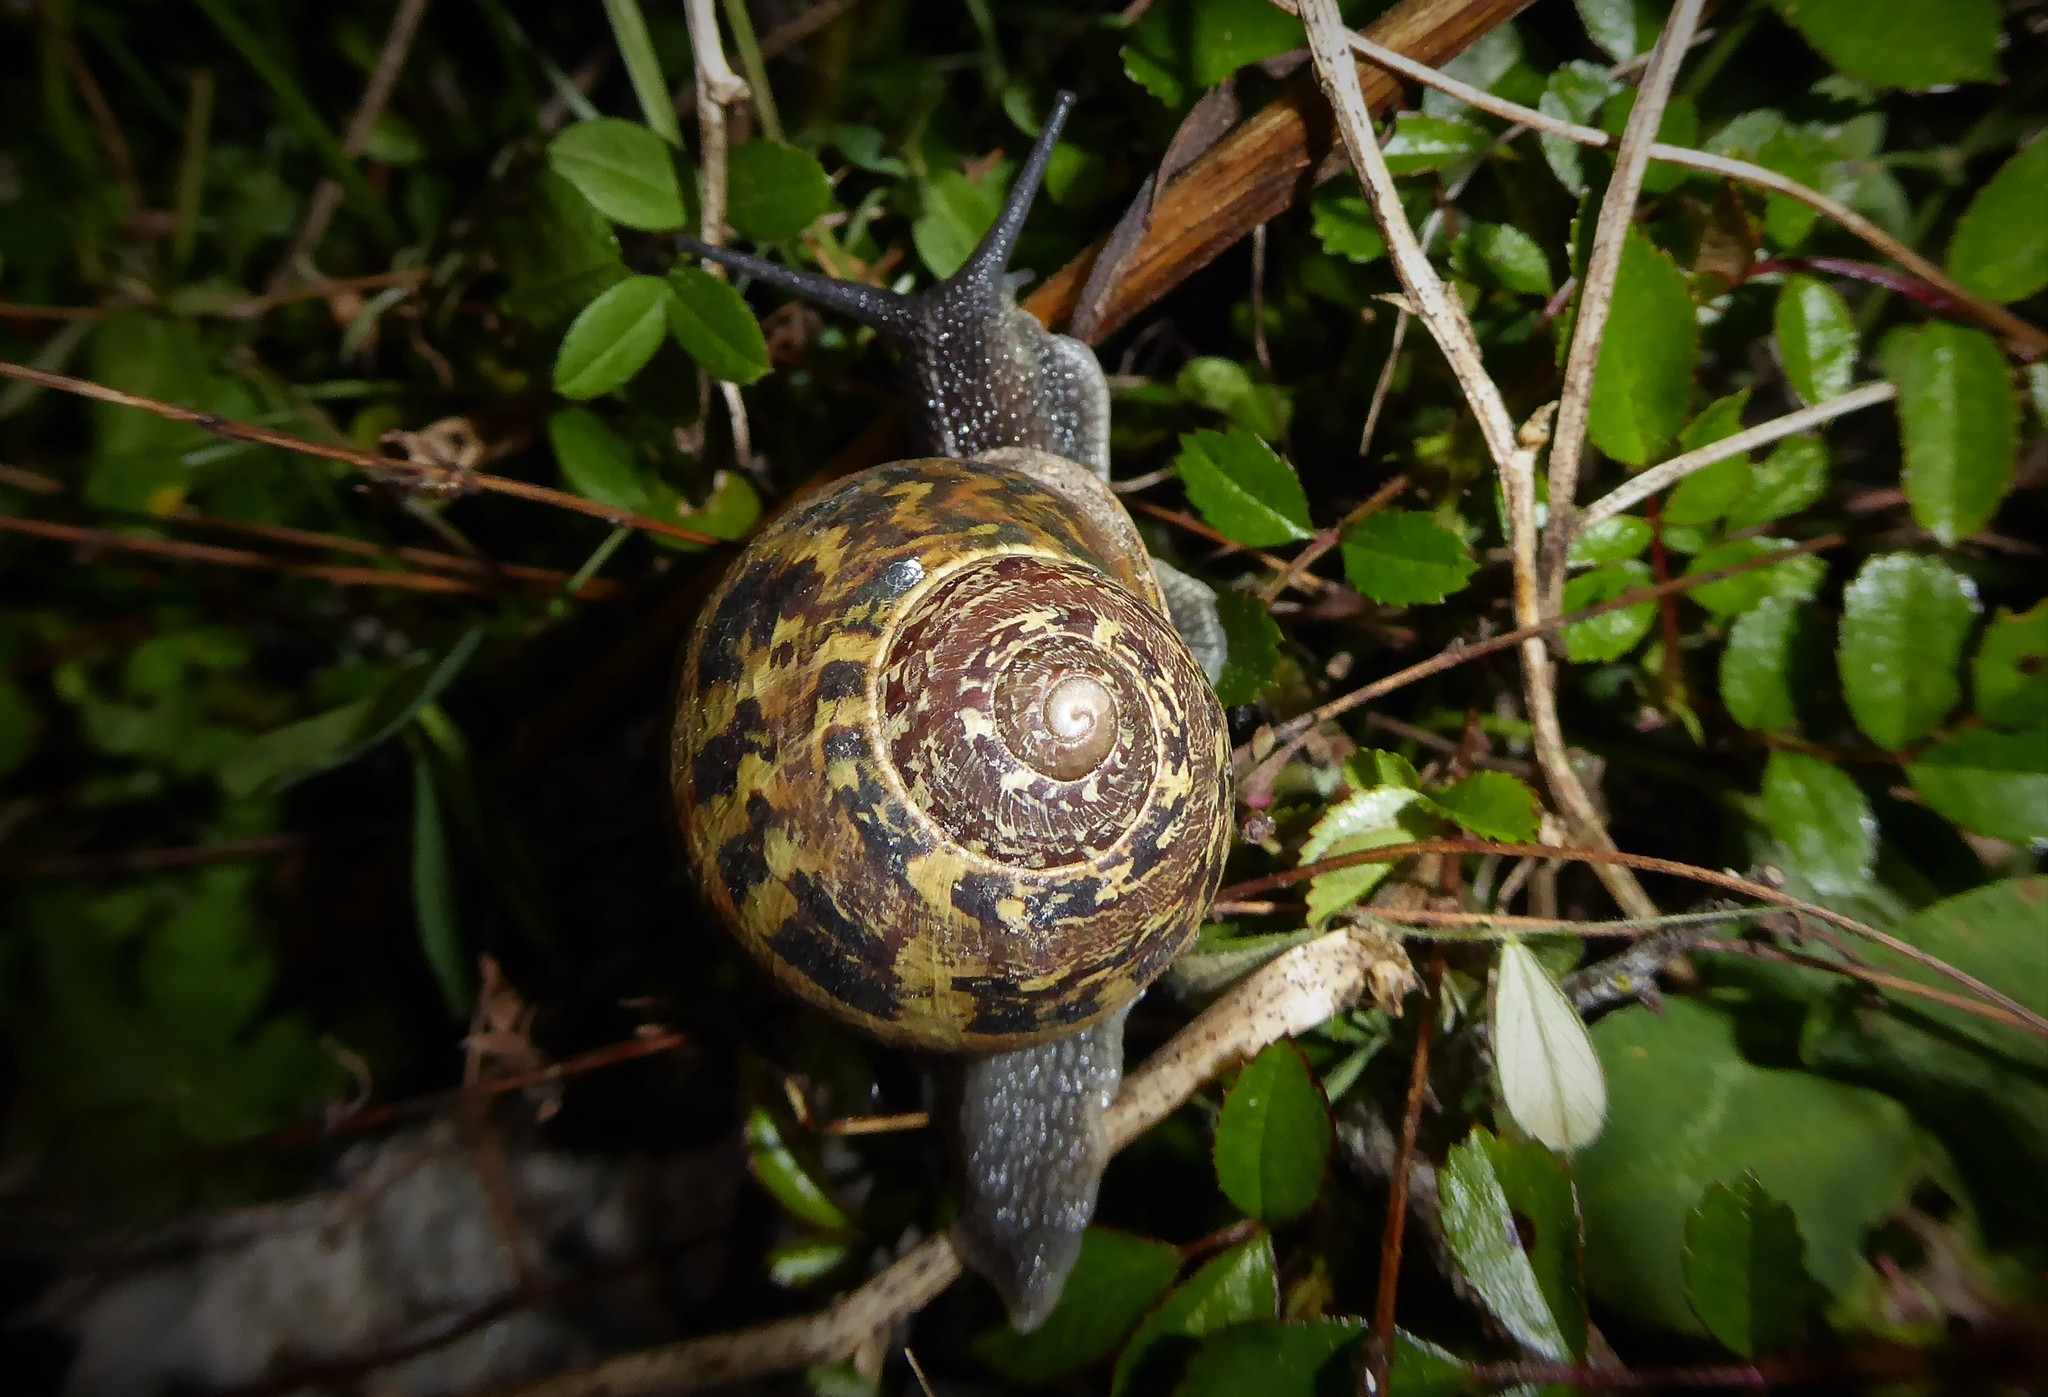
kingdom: Animalia
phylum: Mollusca
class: Gastropoda
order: Stylommatophora
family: Helicidae
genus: Cornu
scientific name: Cornu aspersum
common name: Brown garden snail
